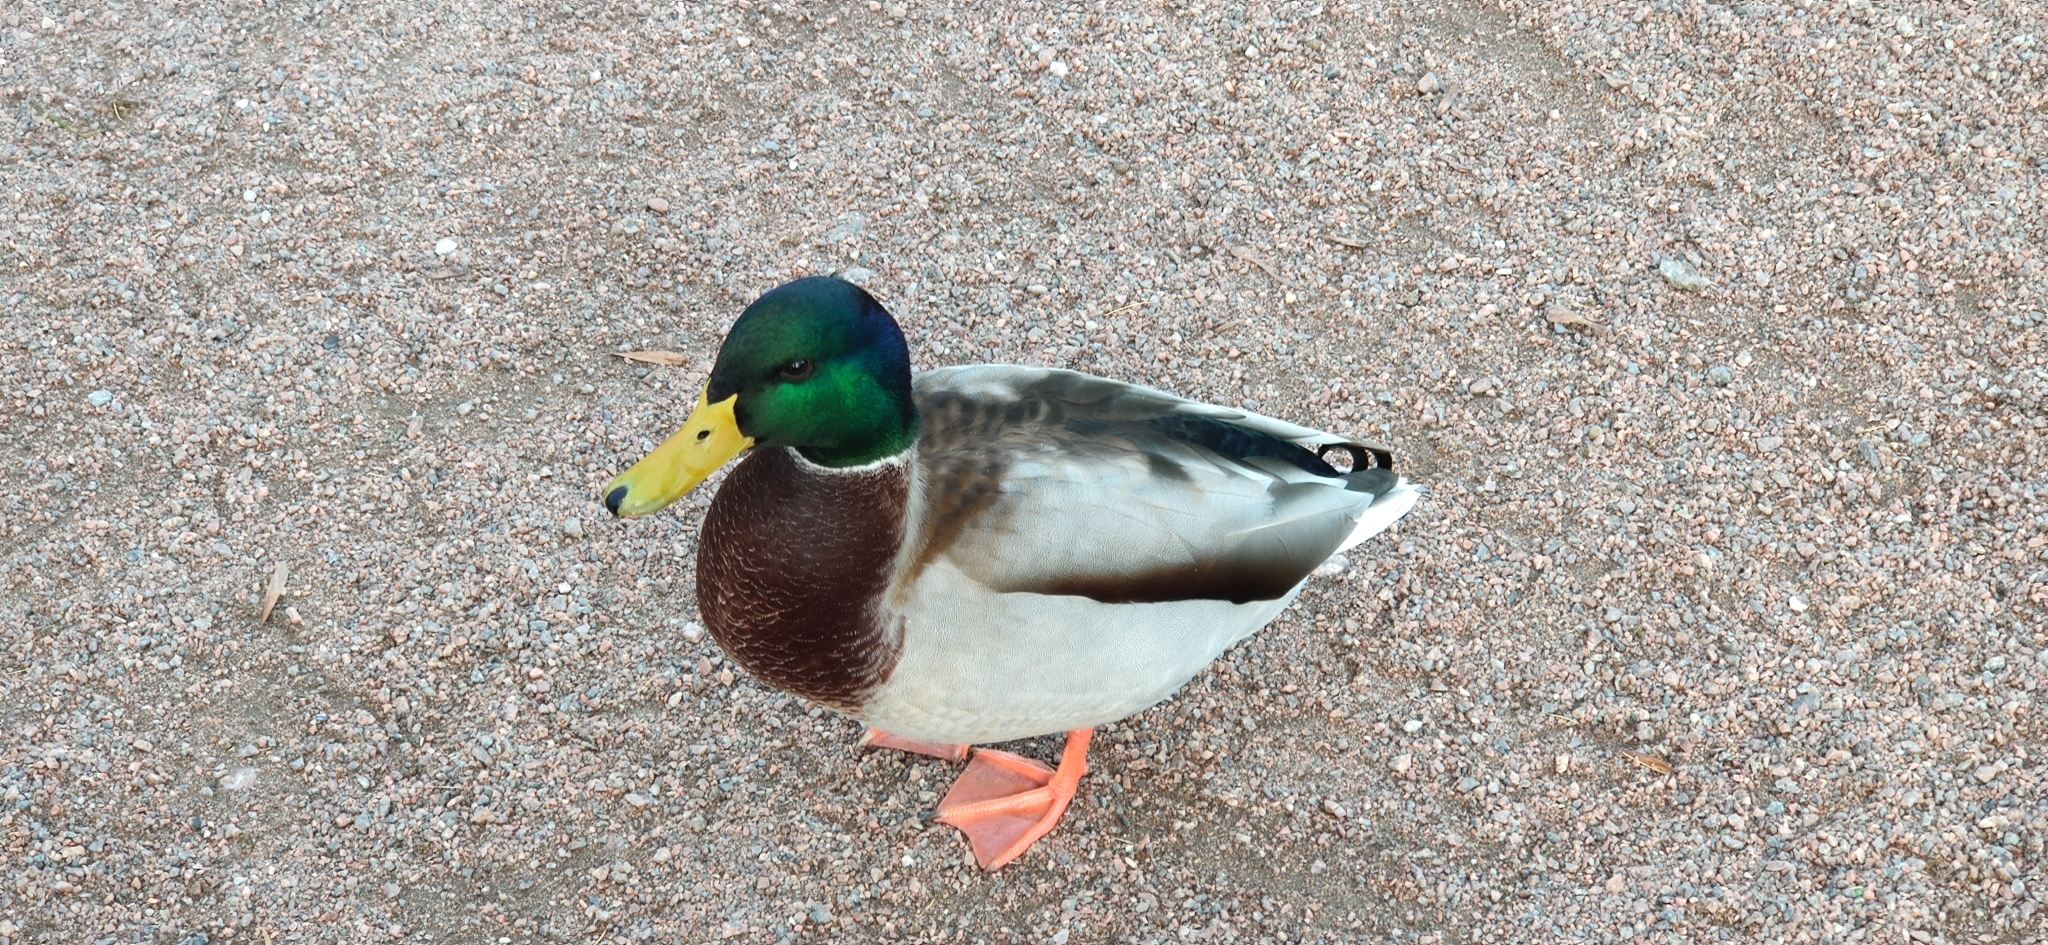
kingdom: Animalia
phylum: Chordata
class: Aves
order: Anseriformes
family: Anatidae
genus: Anas
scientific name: Anas platyrhynchos
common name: Mallard
